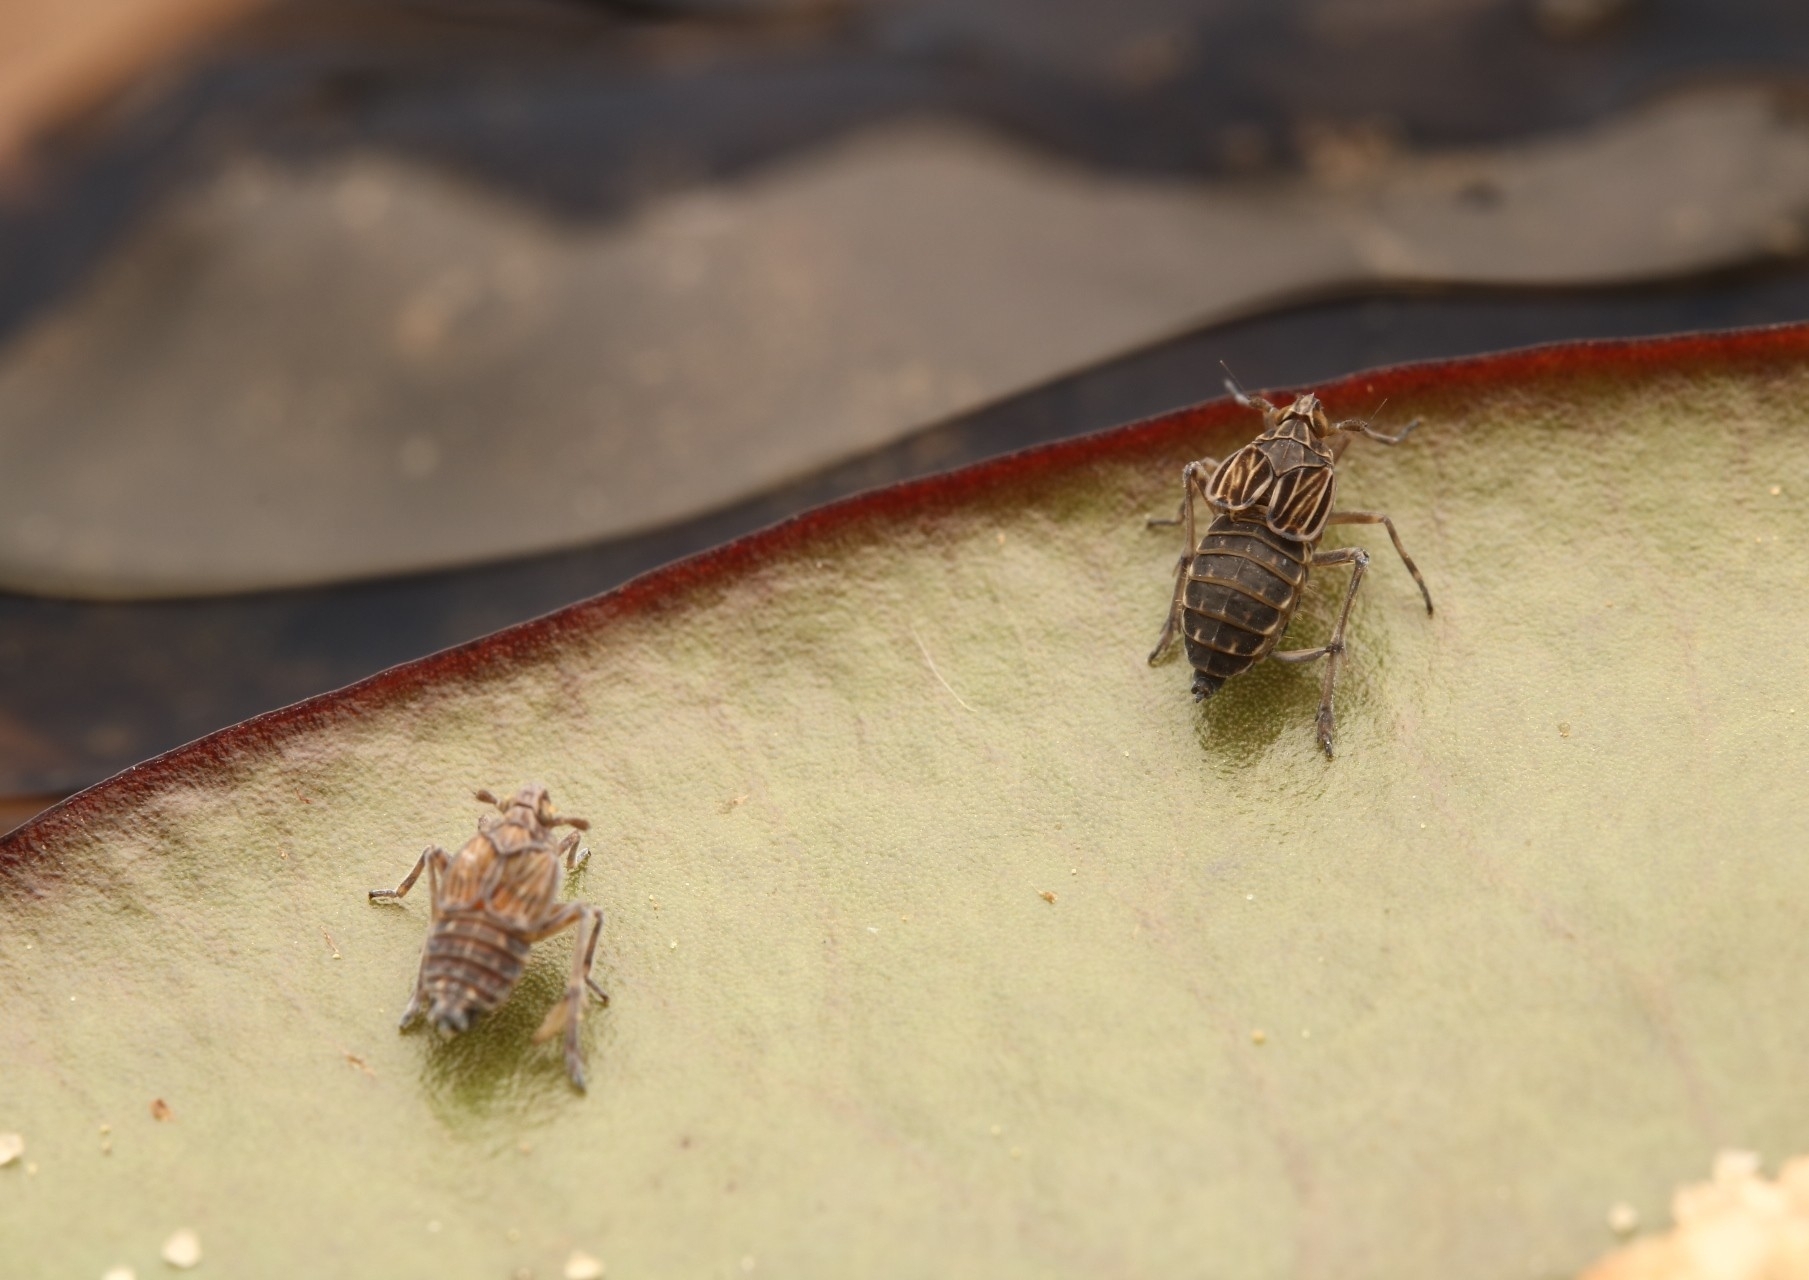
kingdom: Animalia
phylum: Arthropoda
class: Insecta
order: Hemiptera
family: Delphacidae
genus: Megamelus
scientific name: Megamelus davisi
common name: Planthopper
